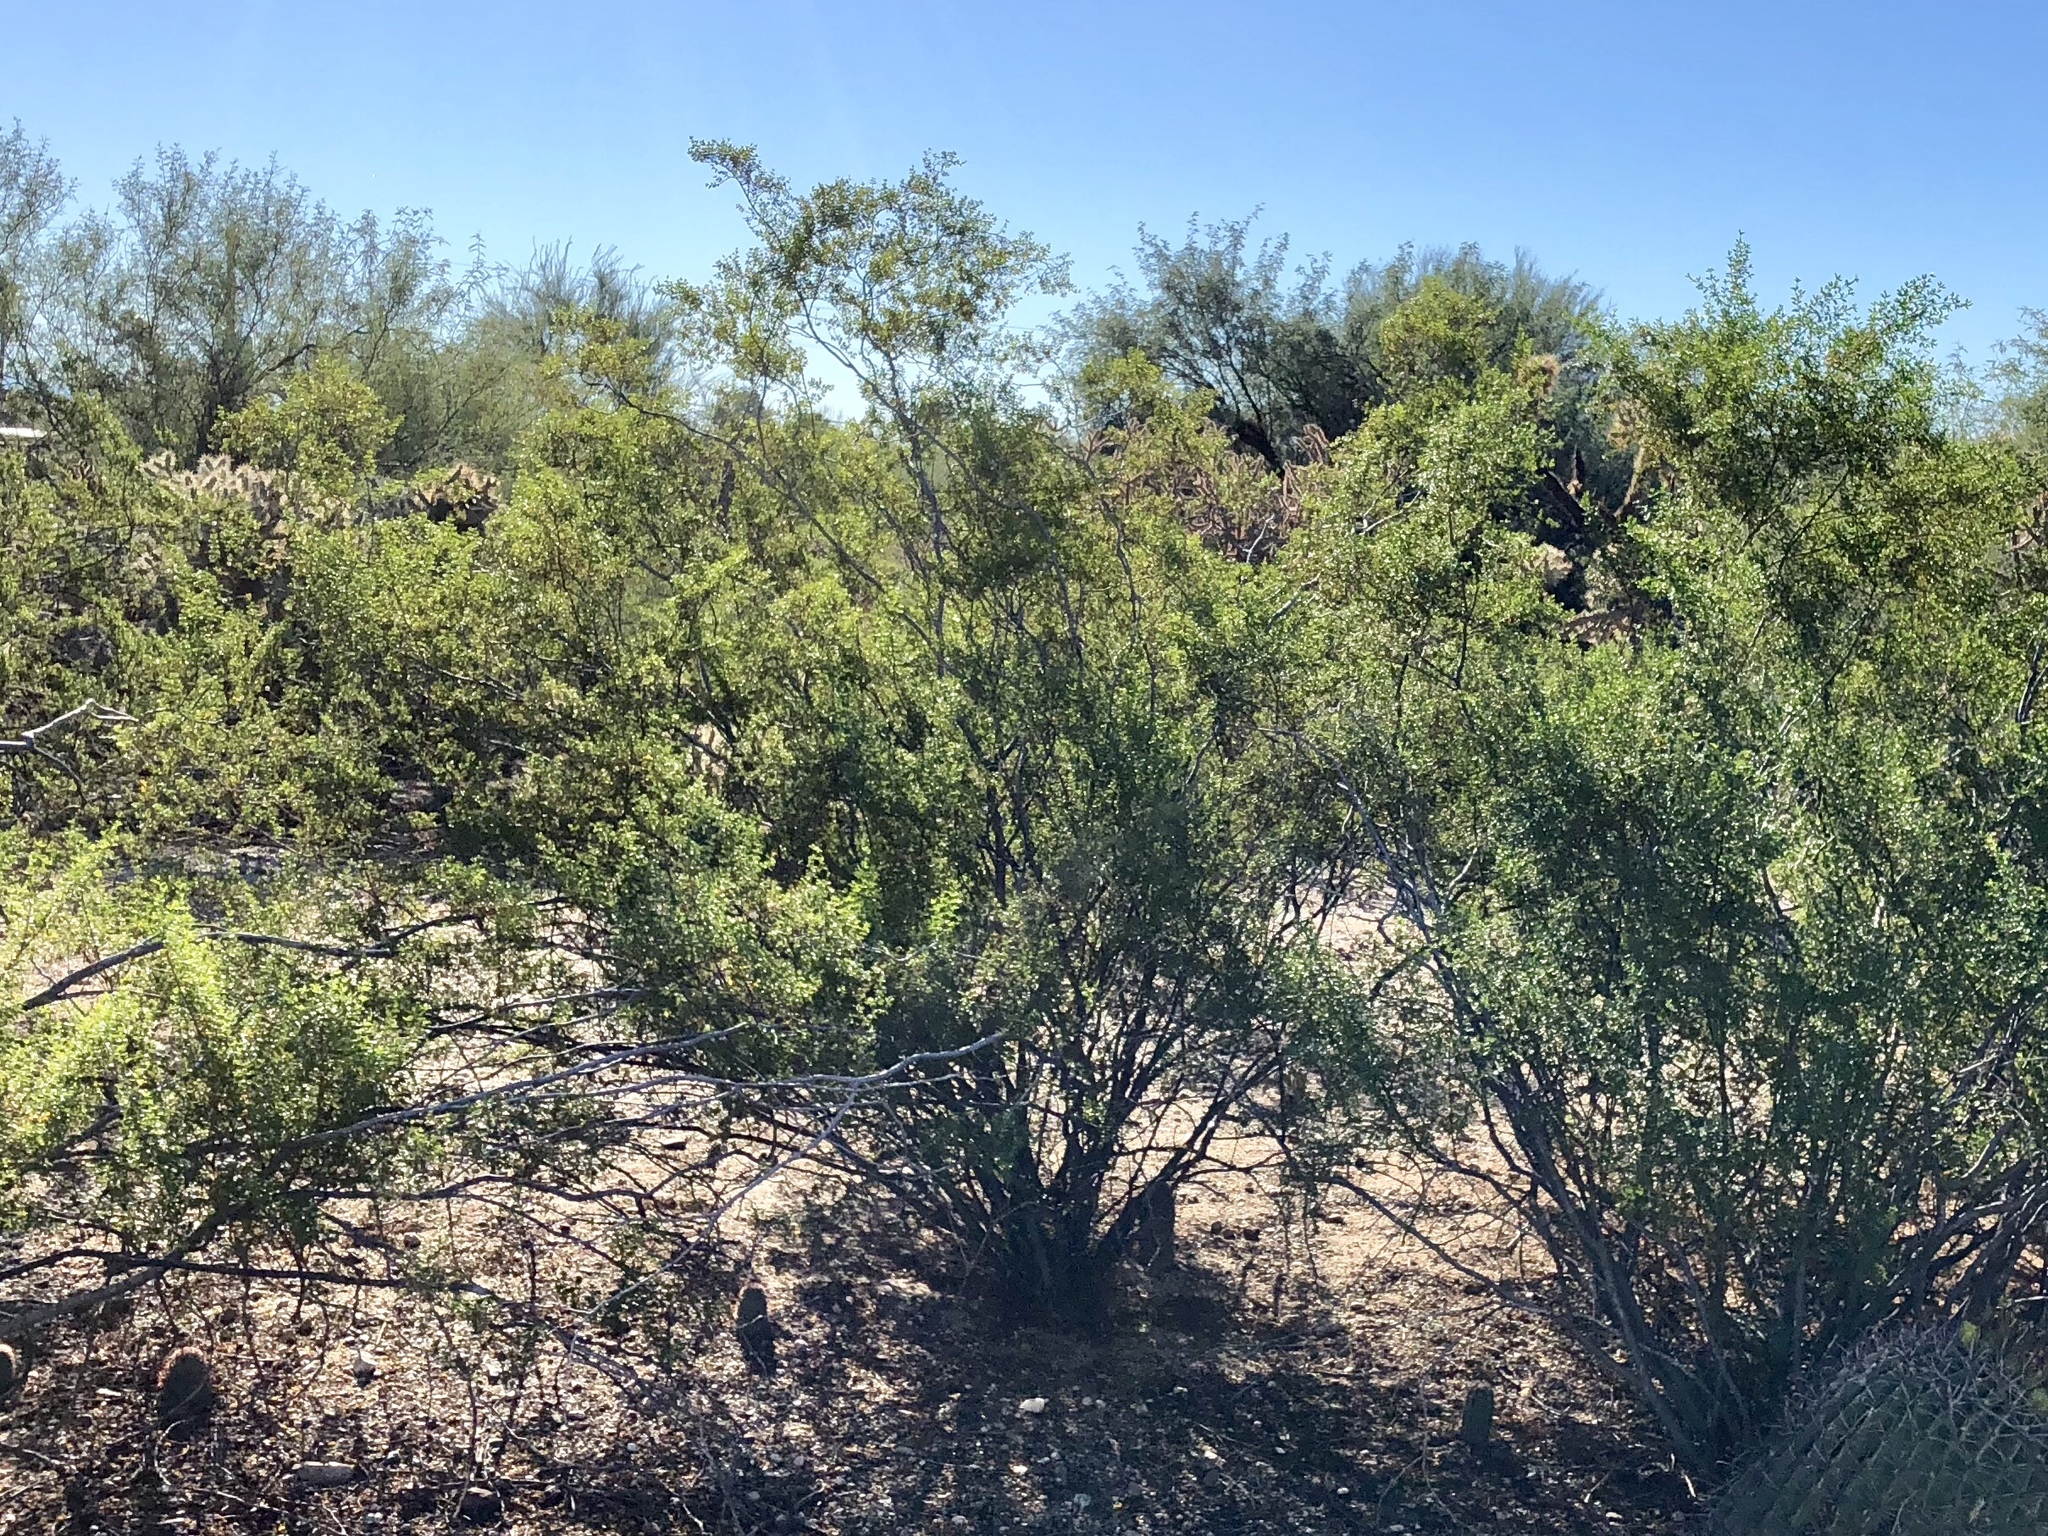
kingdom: Plantae
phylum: Tracheophyta
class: Magnoliopsida
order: Zygophyllales
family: Zygophyllaceae
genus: Larrea
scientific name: Larrea tridentata
